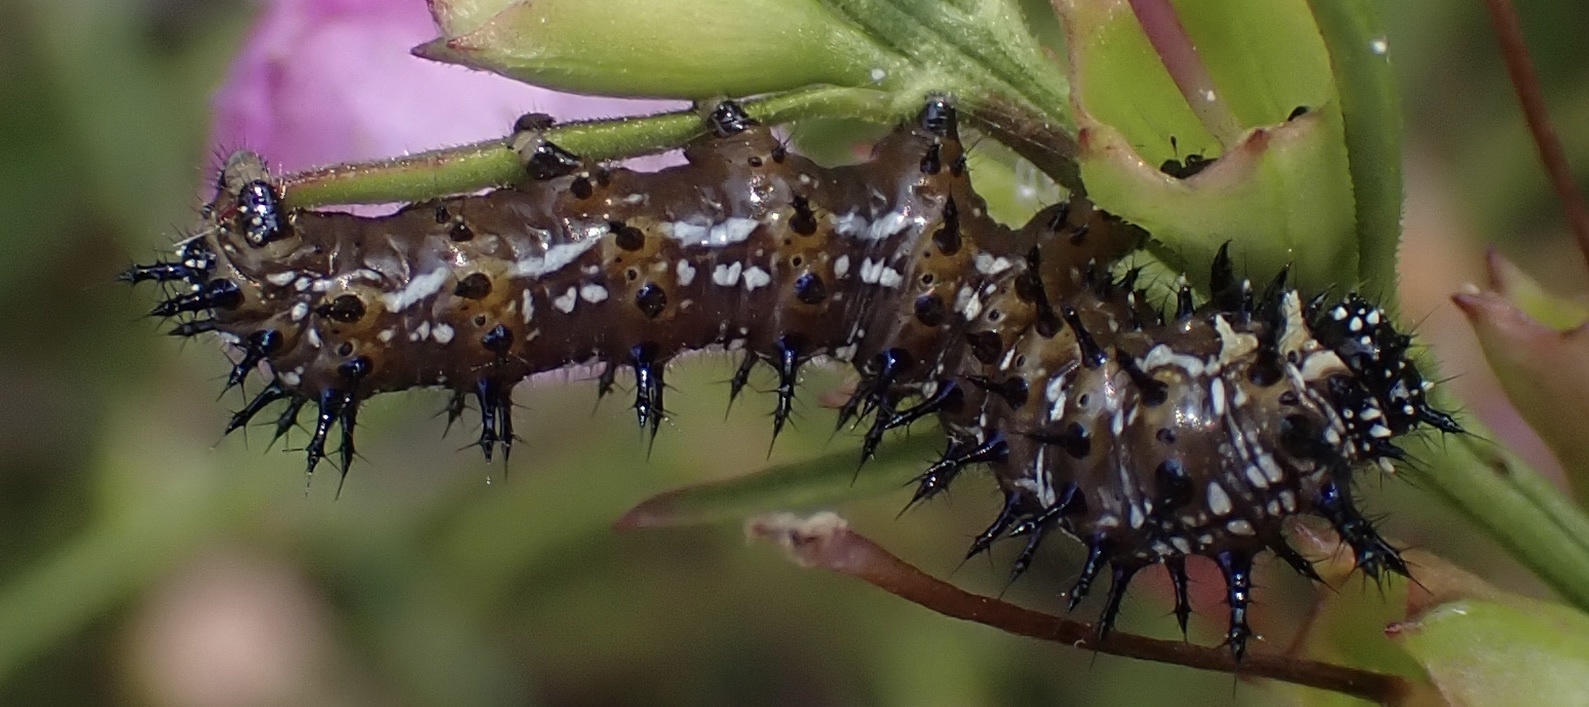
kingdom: Animalia
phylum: Arthropoda
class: Insecta
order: Lepidoptera
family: Nymphalidae
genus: Junonia
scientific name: Junonia coenia
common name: Common buckeye
